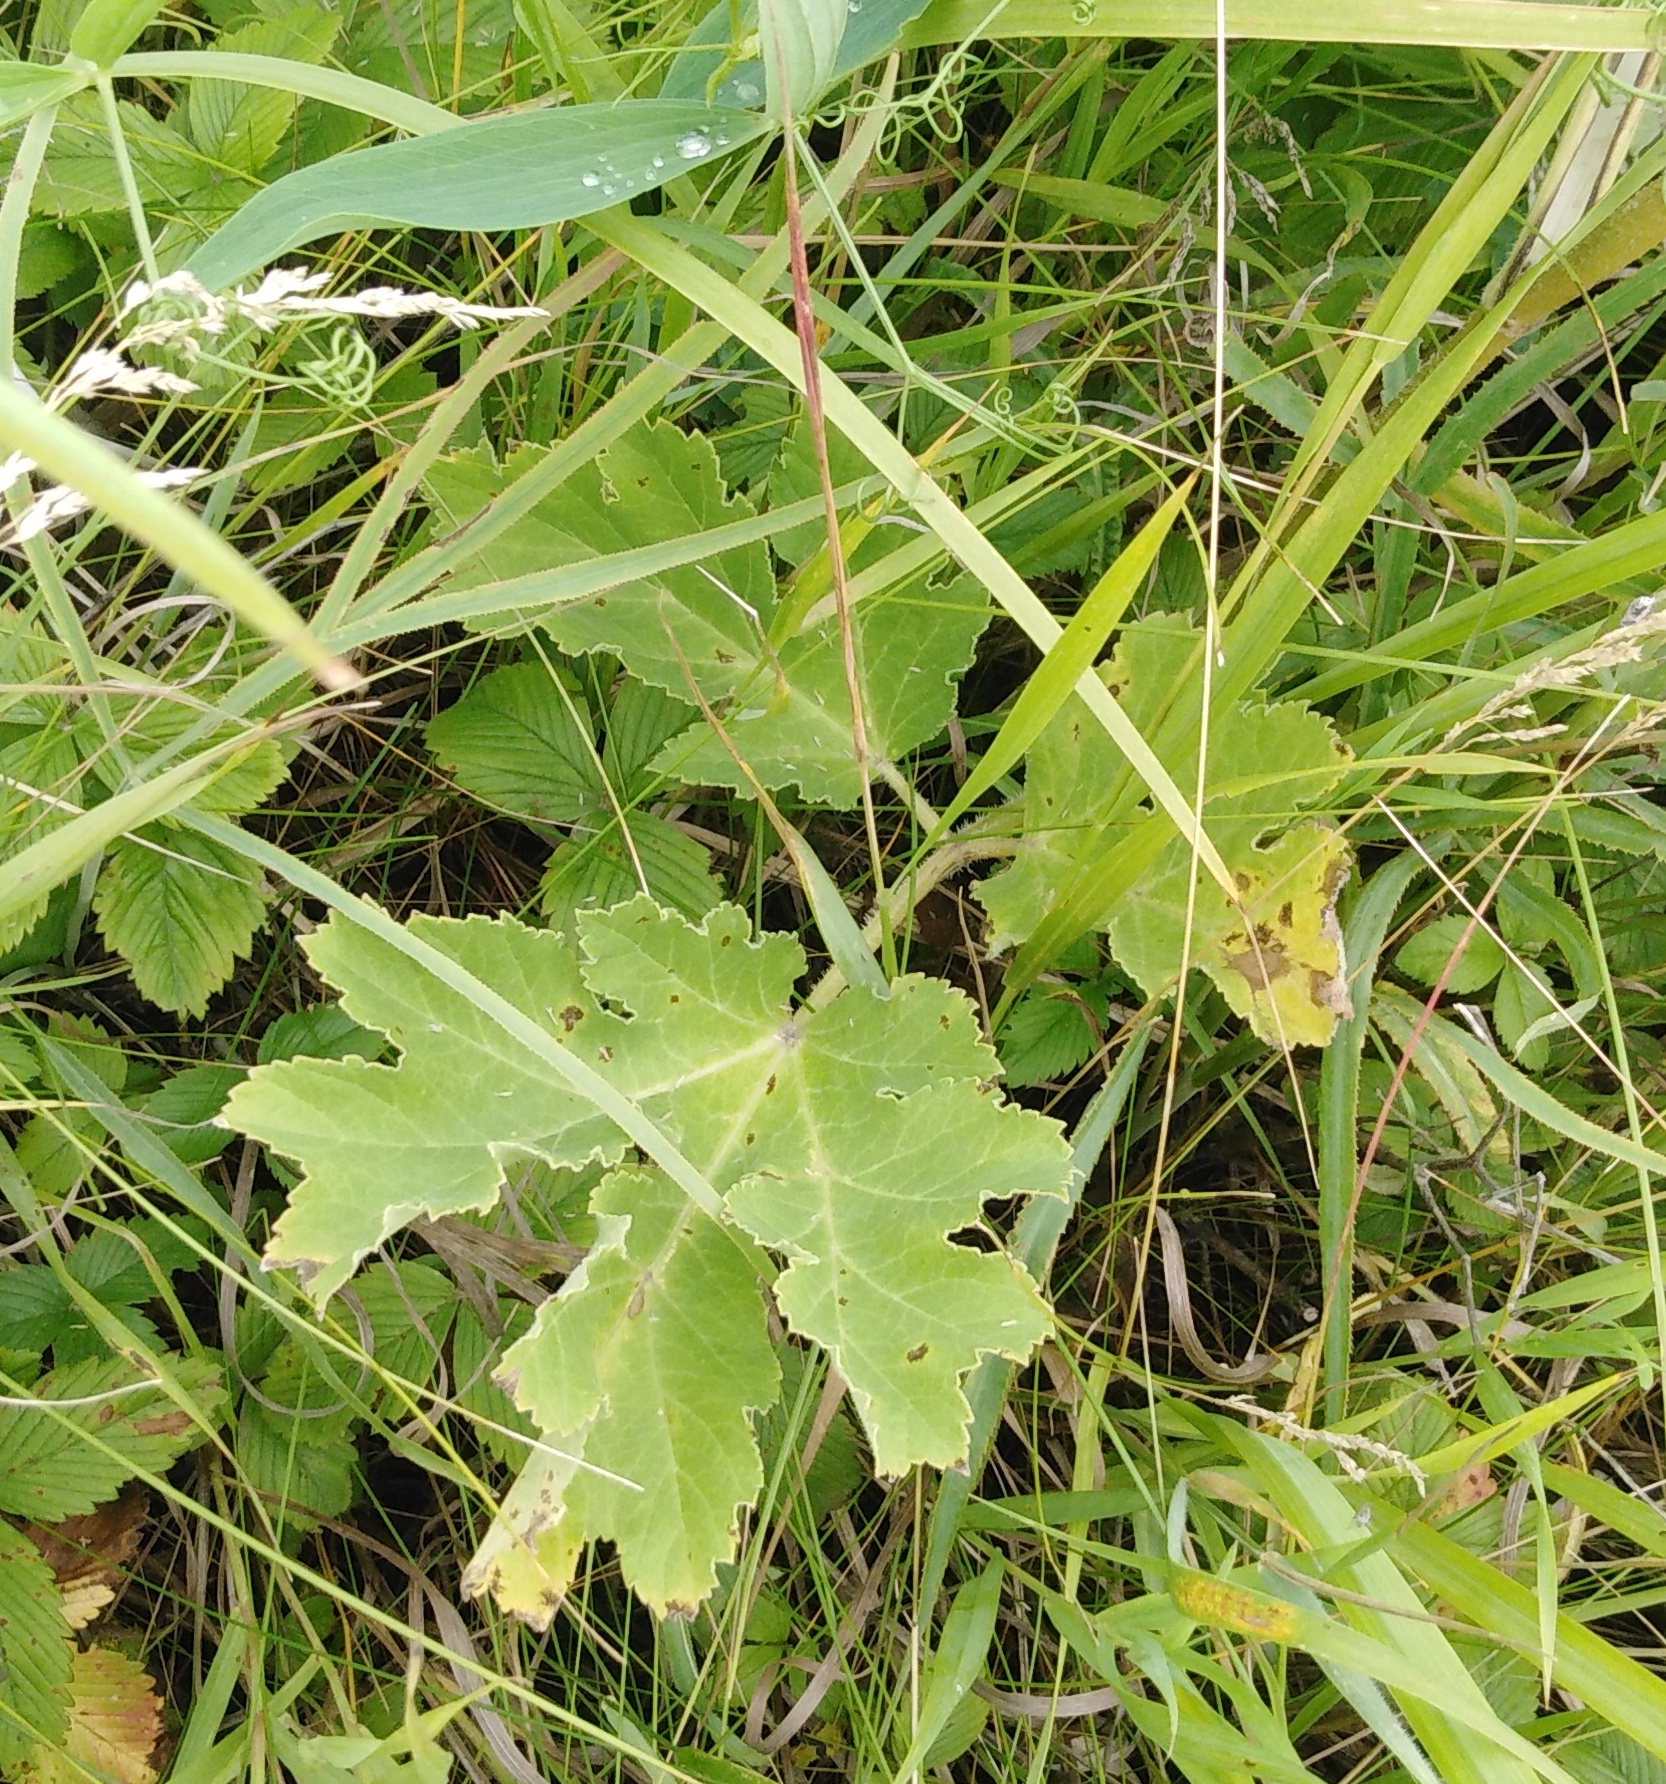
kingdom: Plantae
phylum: Tracheophyta
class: Magnoliopsida
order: Apiales
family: Apiaceae
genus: Heracleum
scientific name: Heracleum sphondylium
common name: Hogweed
